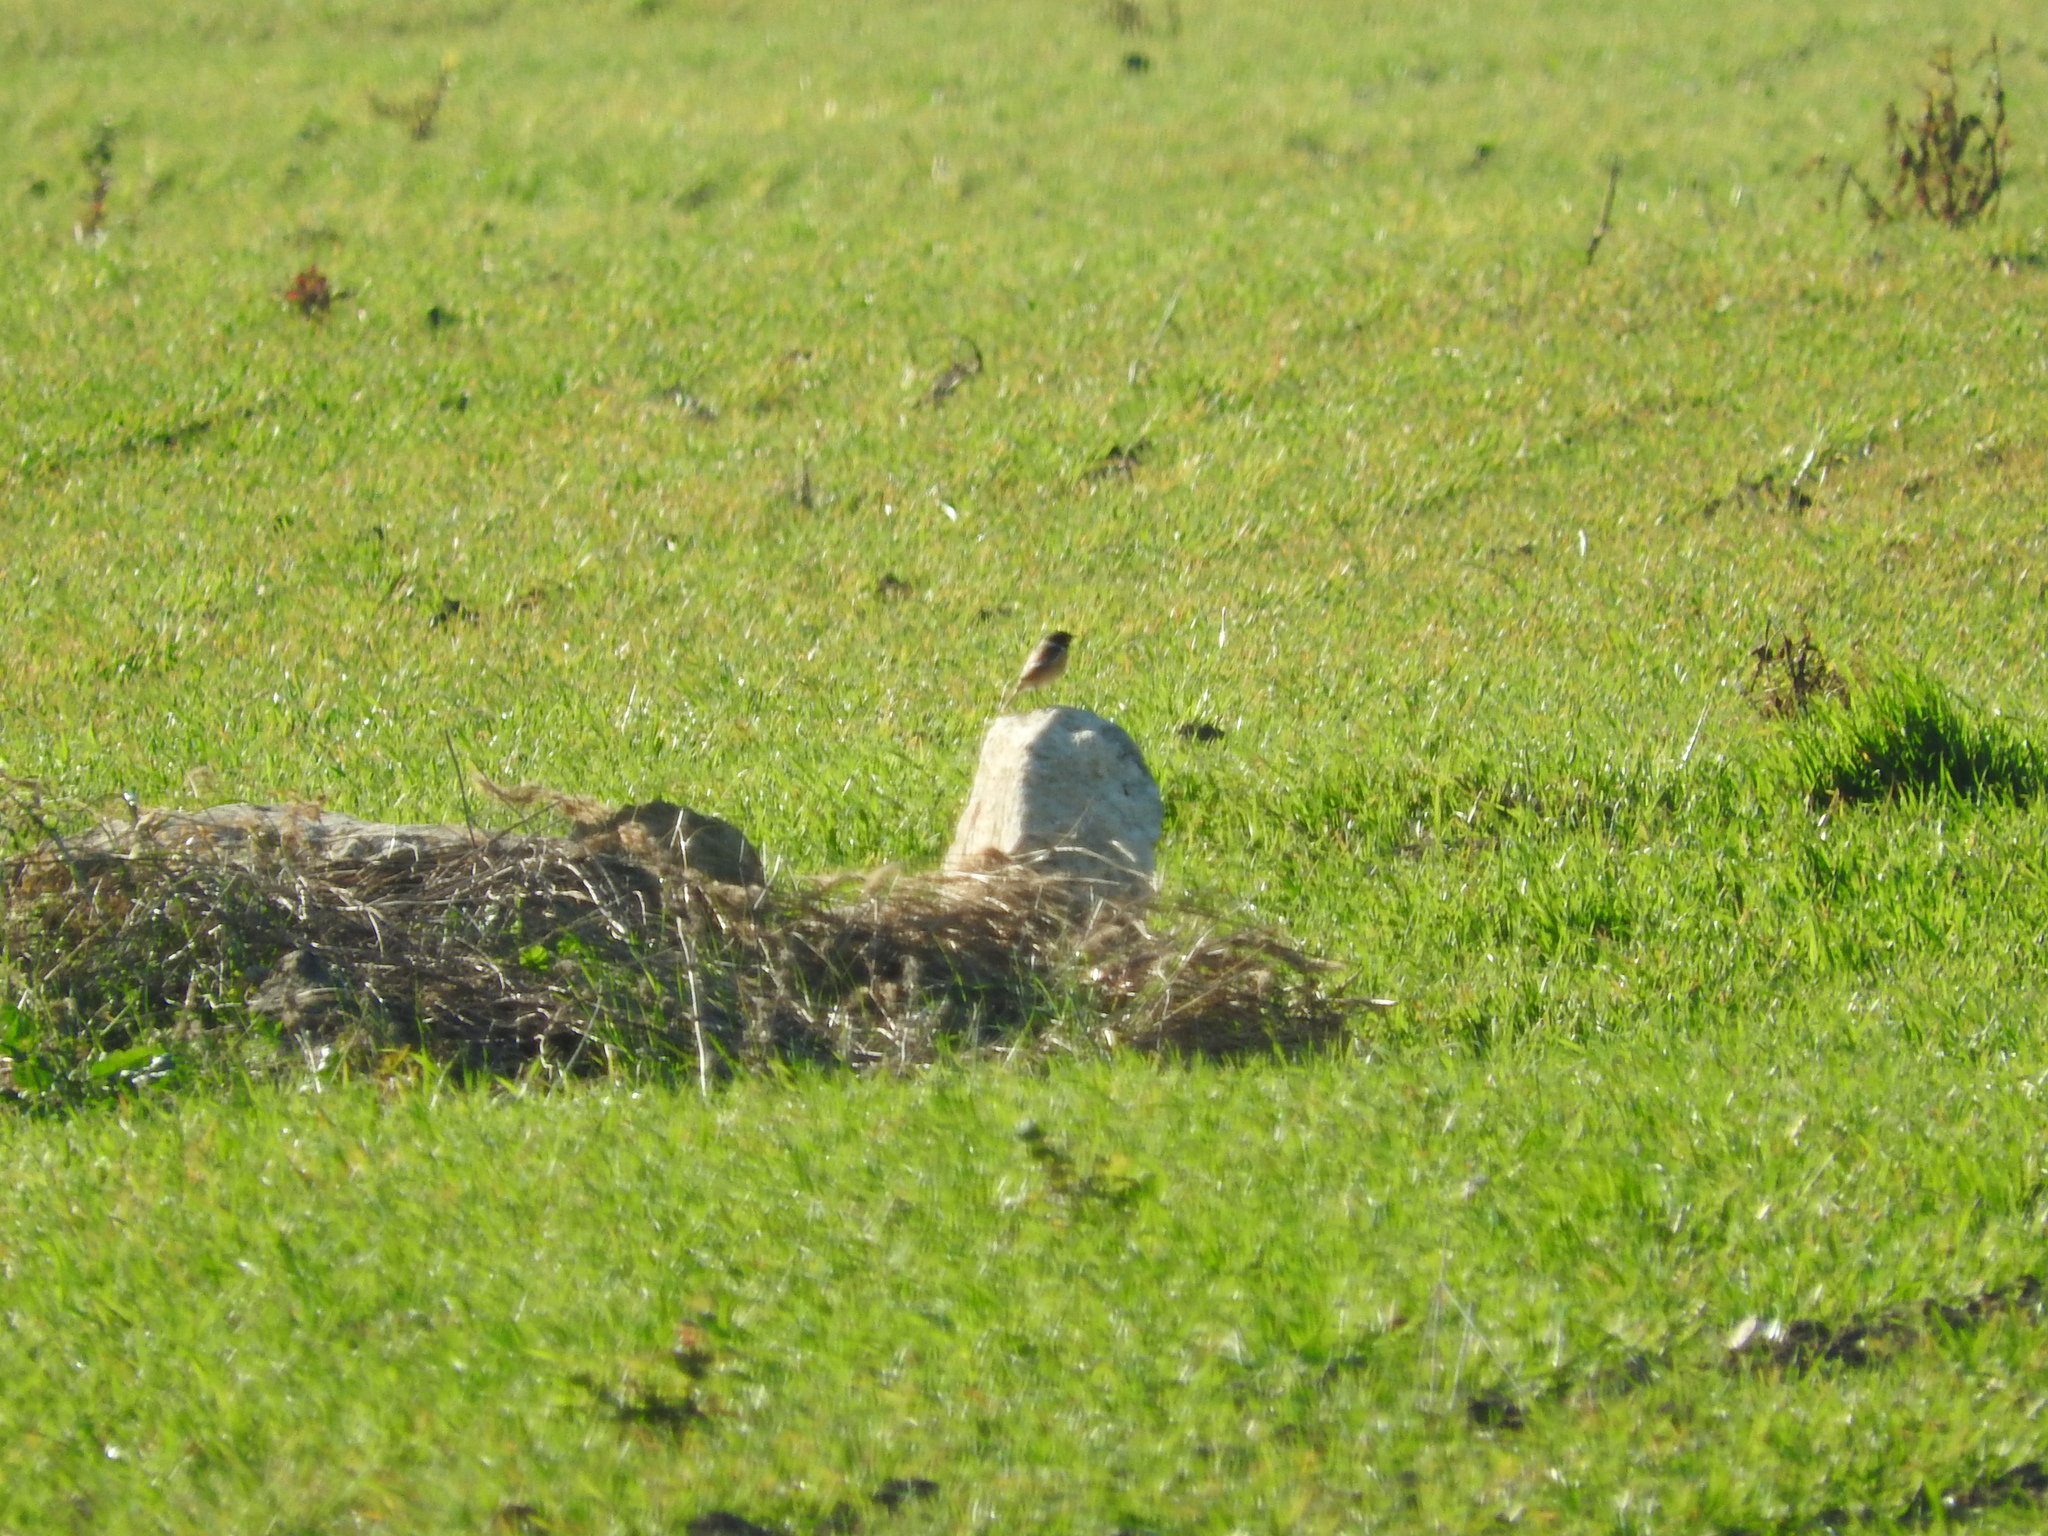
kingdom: Animalia
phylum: Chordata
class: Aves
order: Passeriformes
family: Muscicapidae
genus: Saxicola
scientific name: Saxicola rubicola
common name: European stonechat
